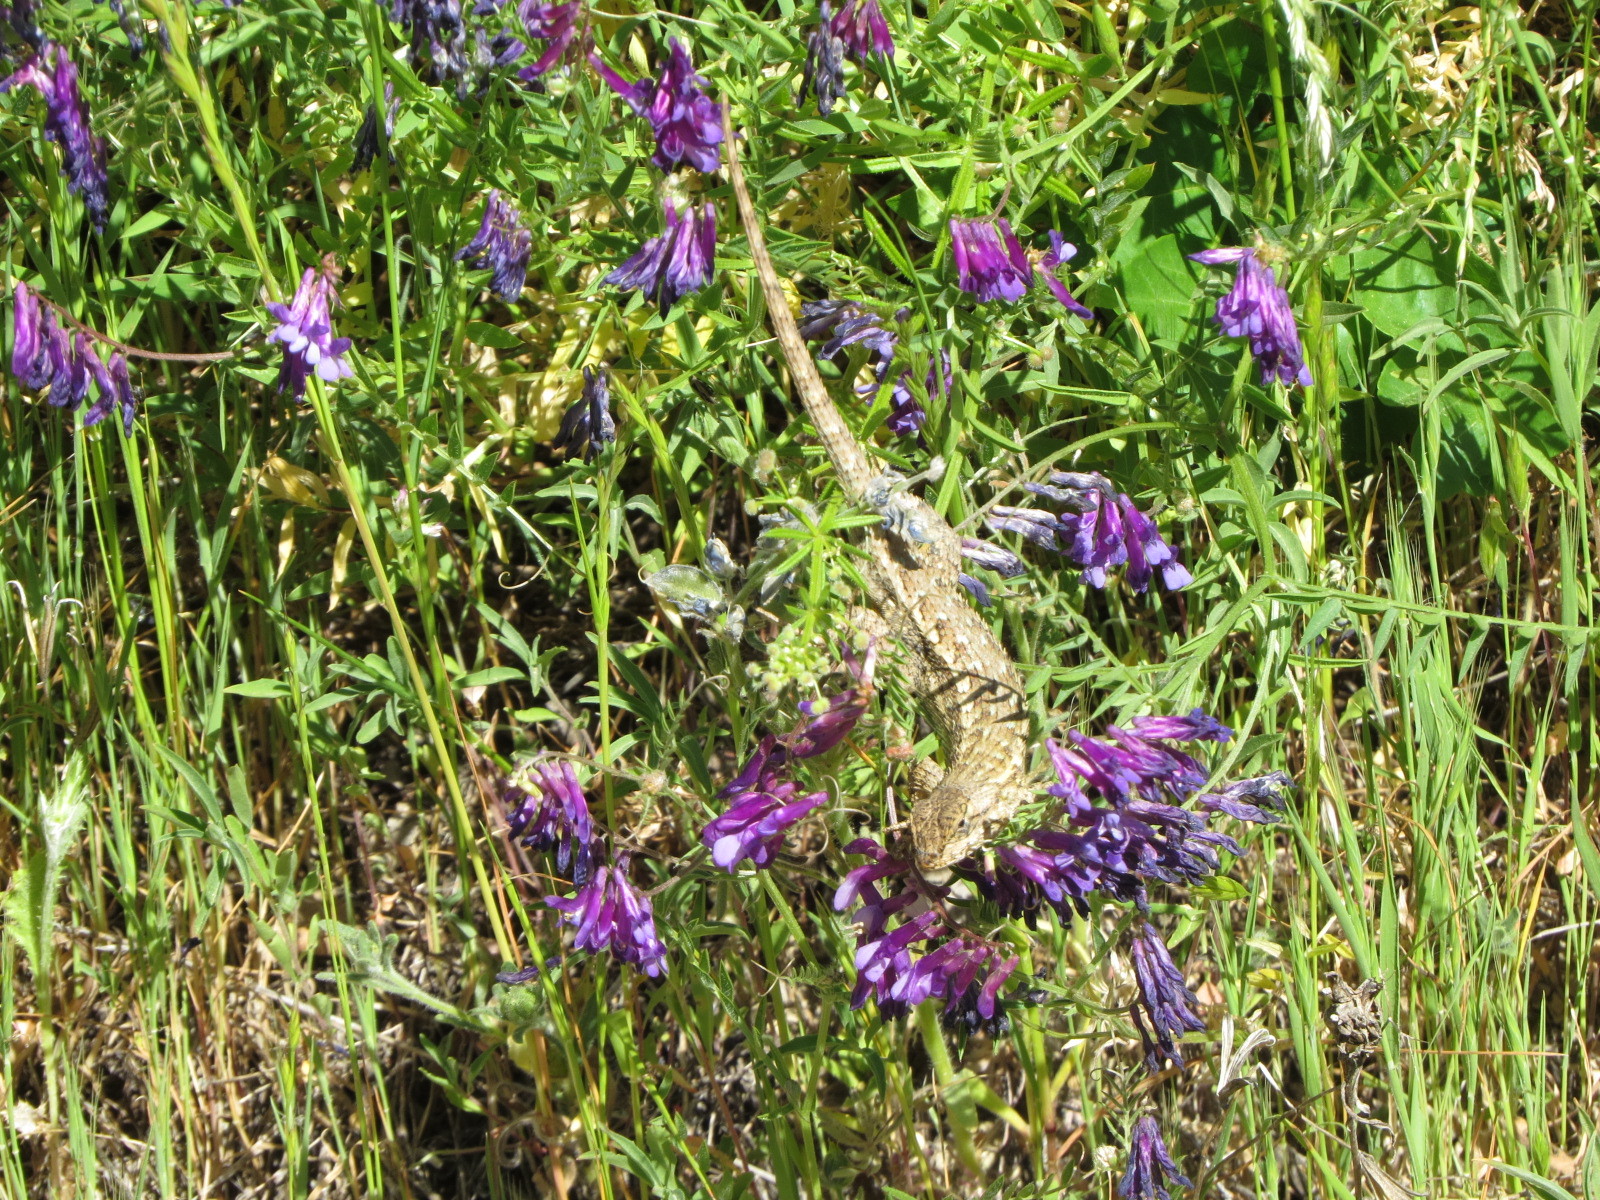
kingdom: Animalia
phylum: Chordata
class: Squamata
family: Phrynosomatidae
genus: Sceloporus
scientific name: Sceloporus occidentalis
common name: Western fence lizard
